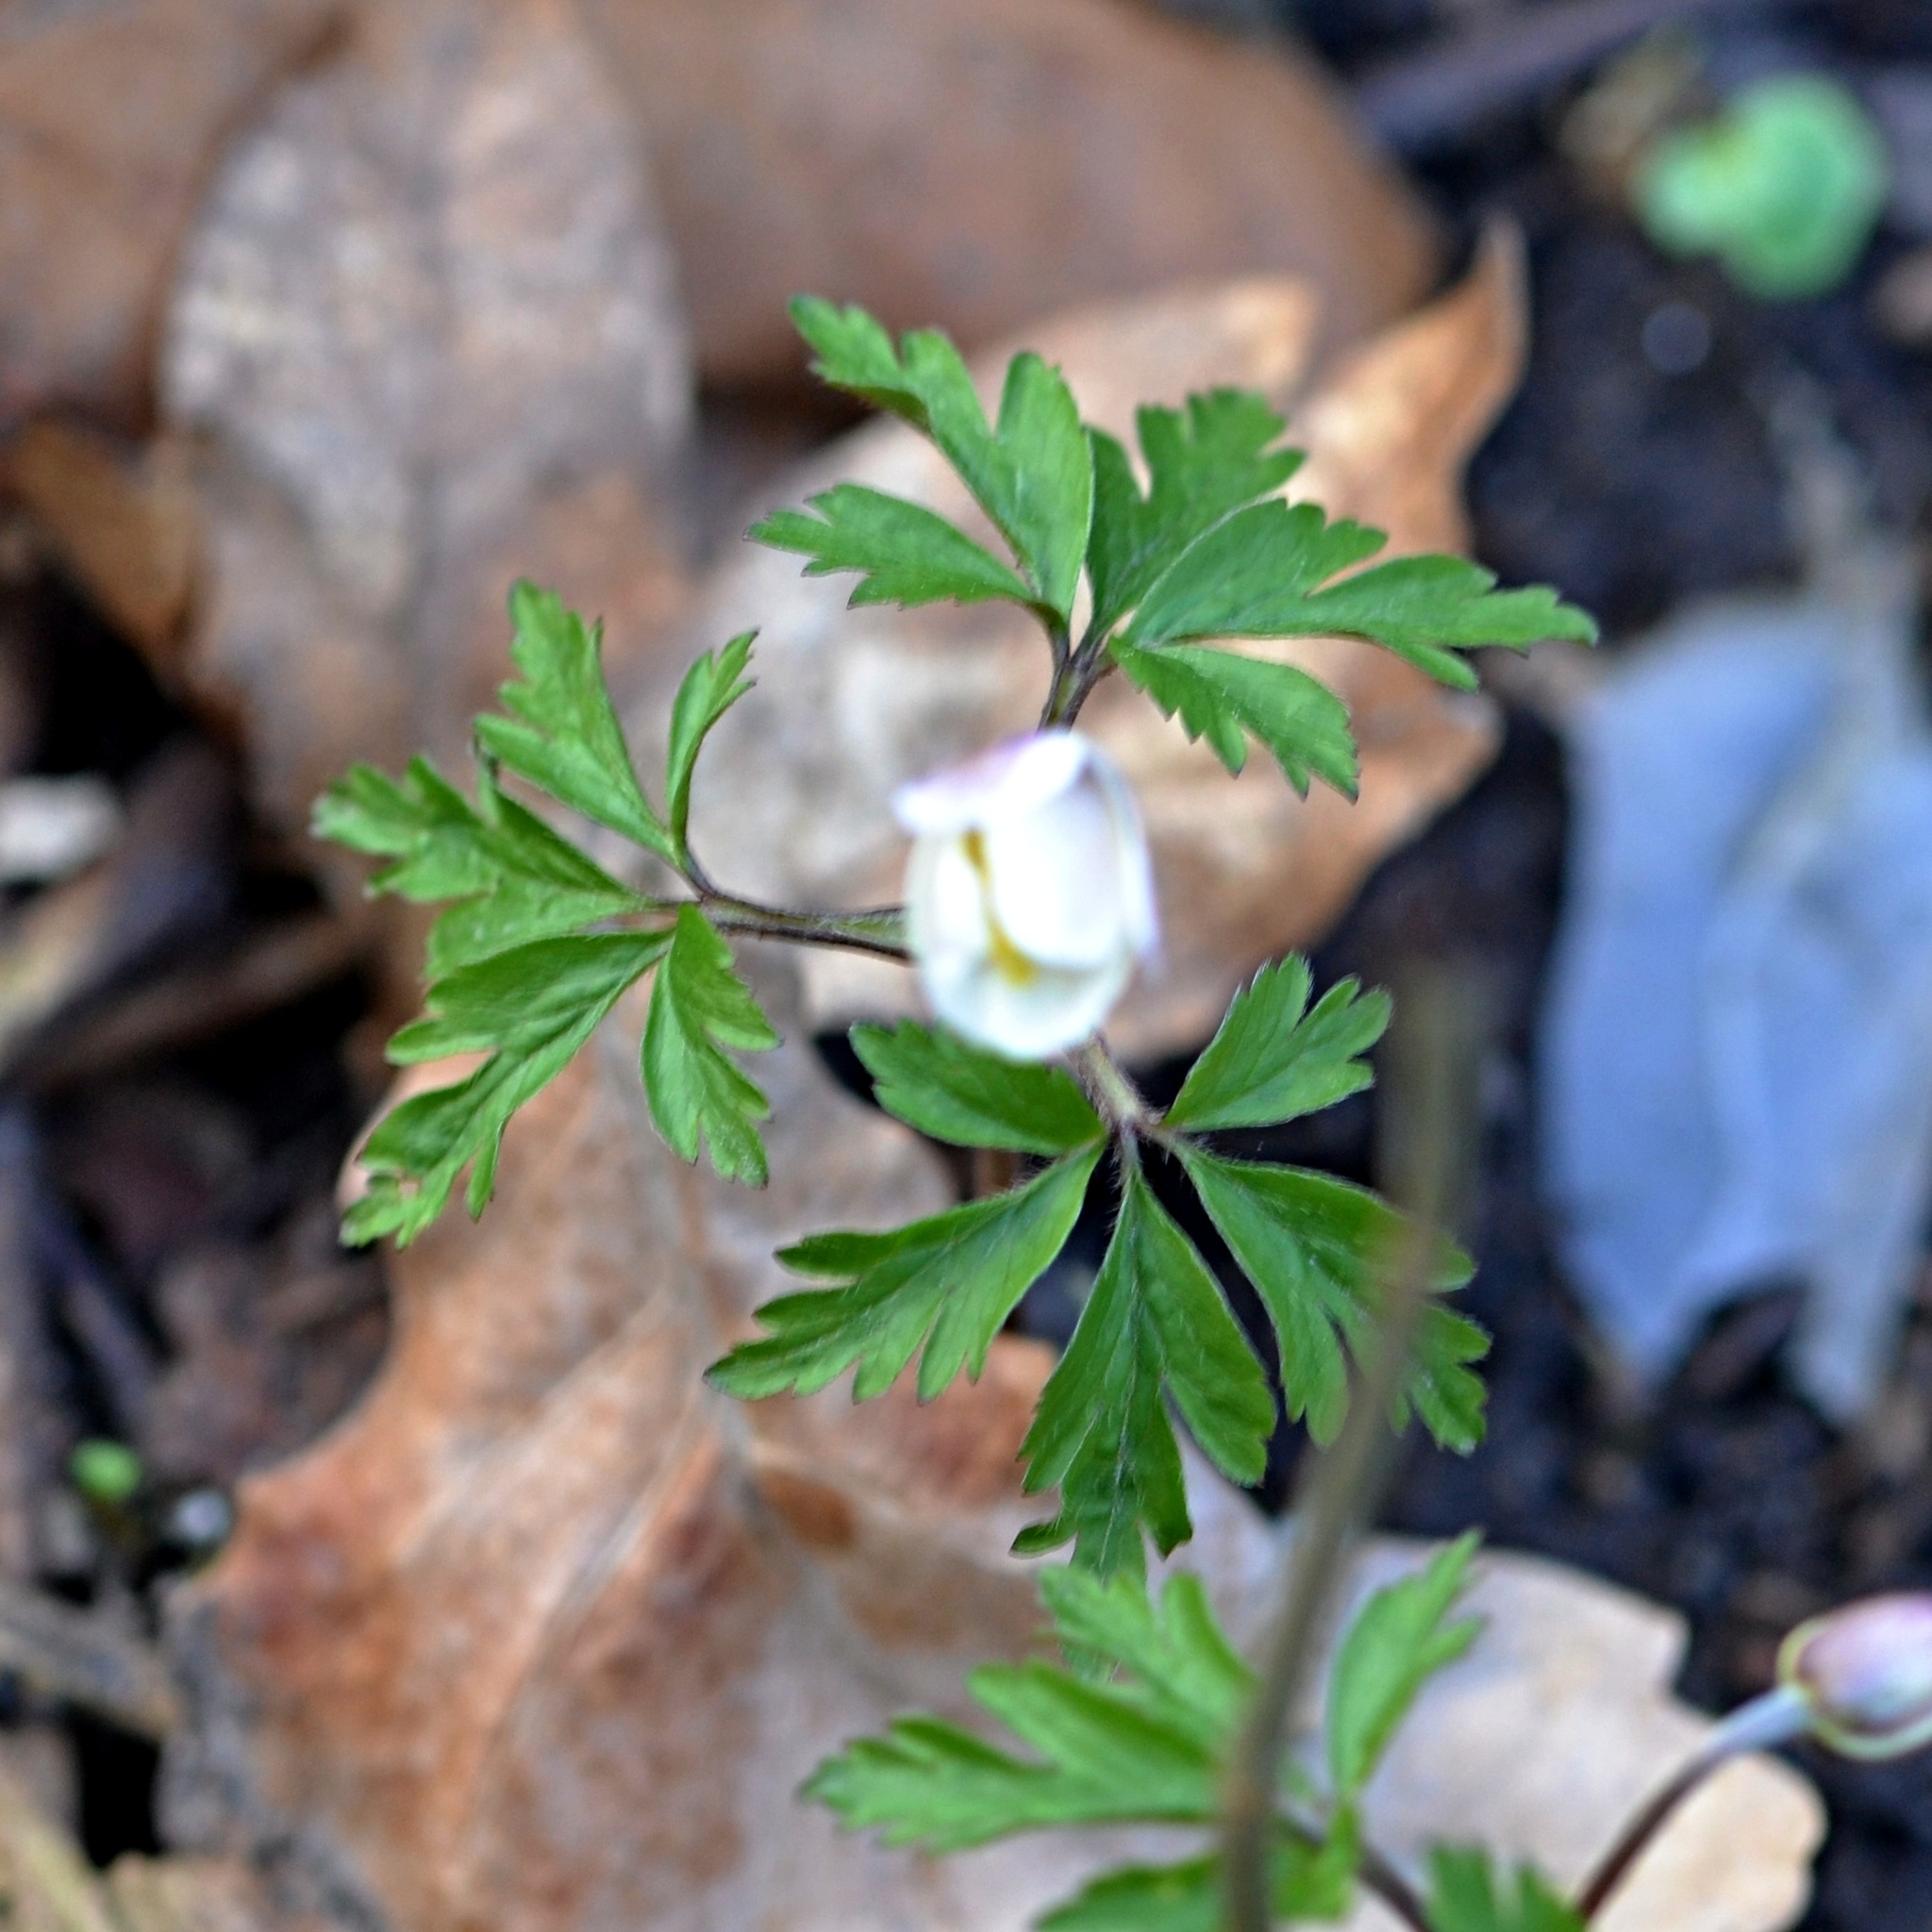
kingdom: Plantae
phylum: Tracheophyta
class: Magnoliopsida
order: Ranunculales
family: Ranunculaceae
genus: Anemone
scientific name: Anemone nemorosa
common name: Wood anemone
